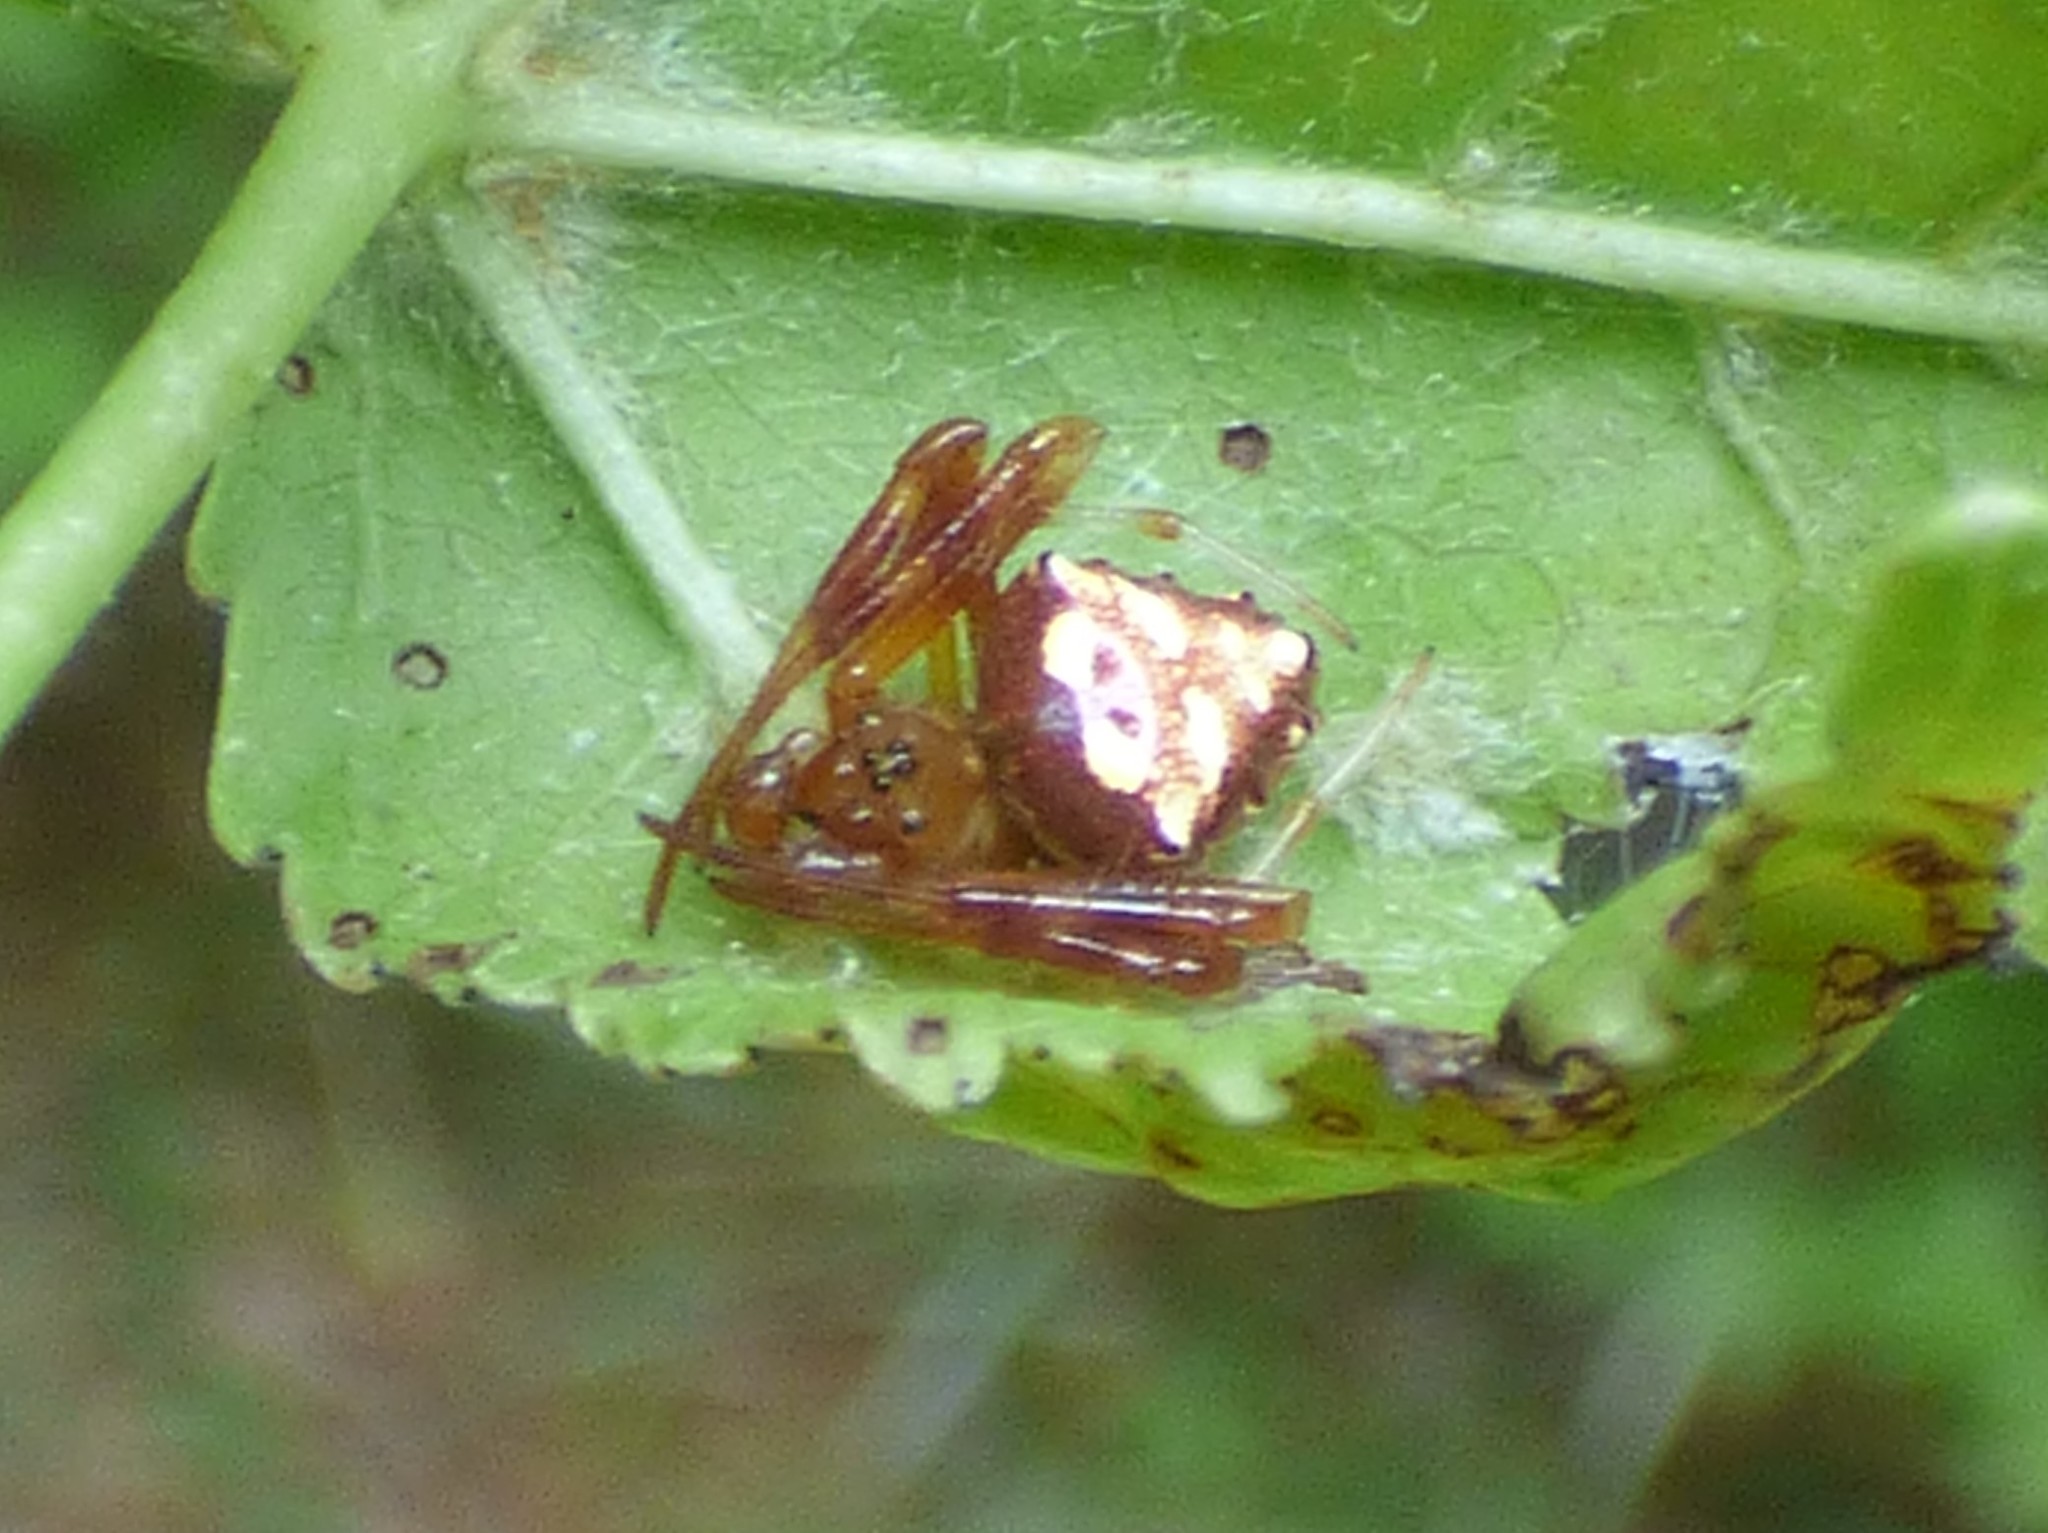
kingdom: Animalia
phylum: Arthropoda
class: Arachnida
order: Araneae
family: Araneidae
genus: Verrucosa
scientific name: Verrucosa arenata
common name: Orb weavers
